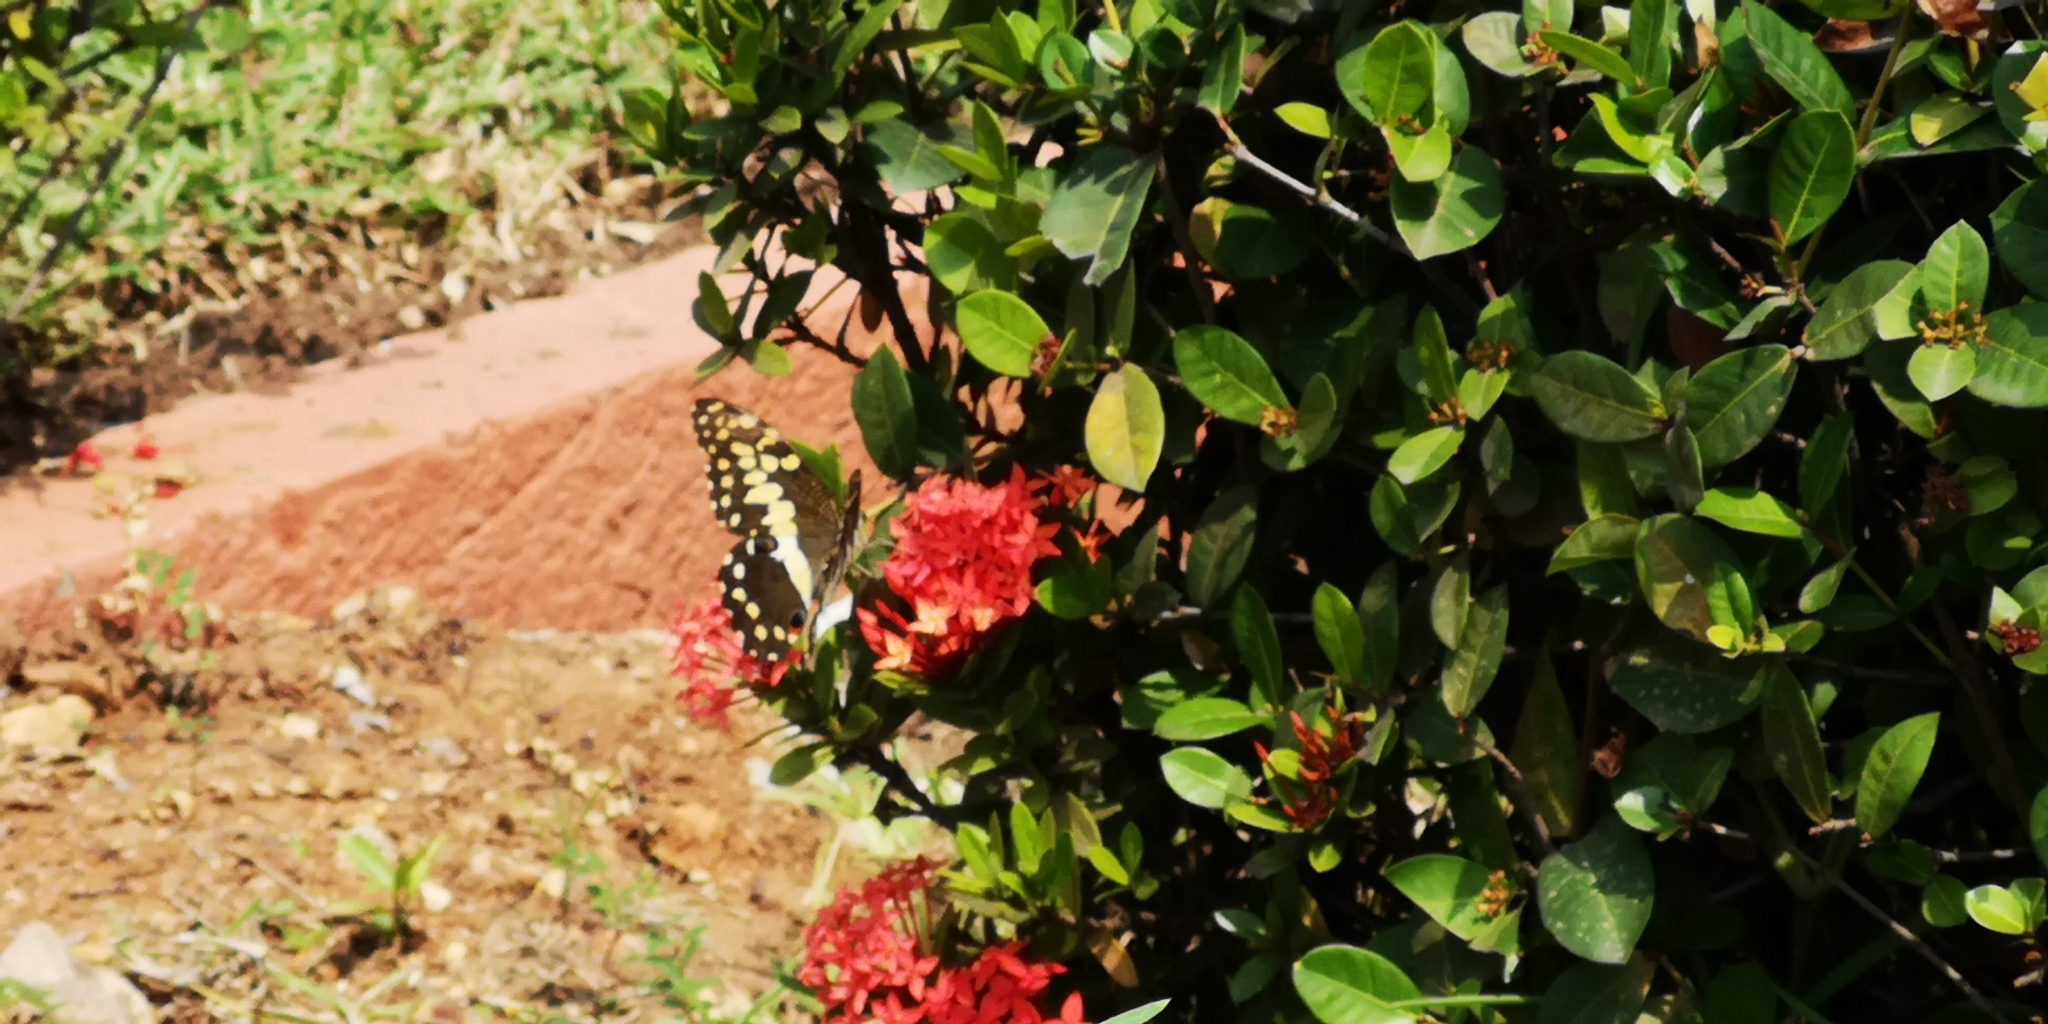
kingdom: Animalia
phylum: Arthropoda
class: Insecta
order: Lepidoptera
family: Papilionidae
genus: Papilio
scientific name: Papilio demodocus
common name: Christmas butterfly
